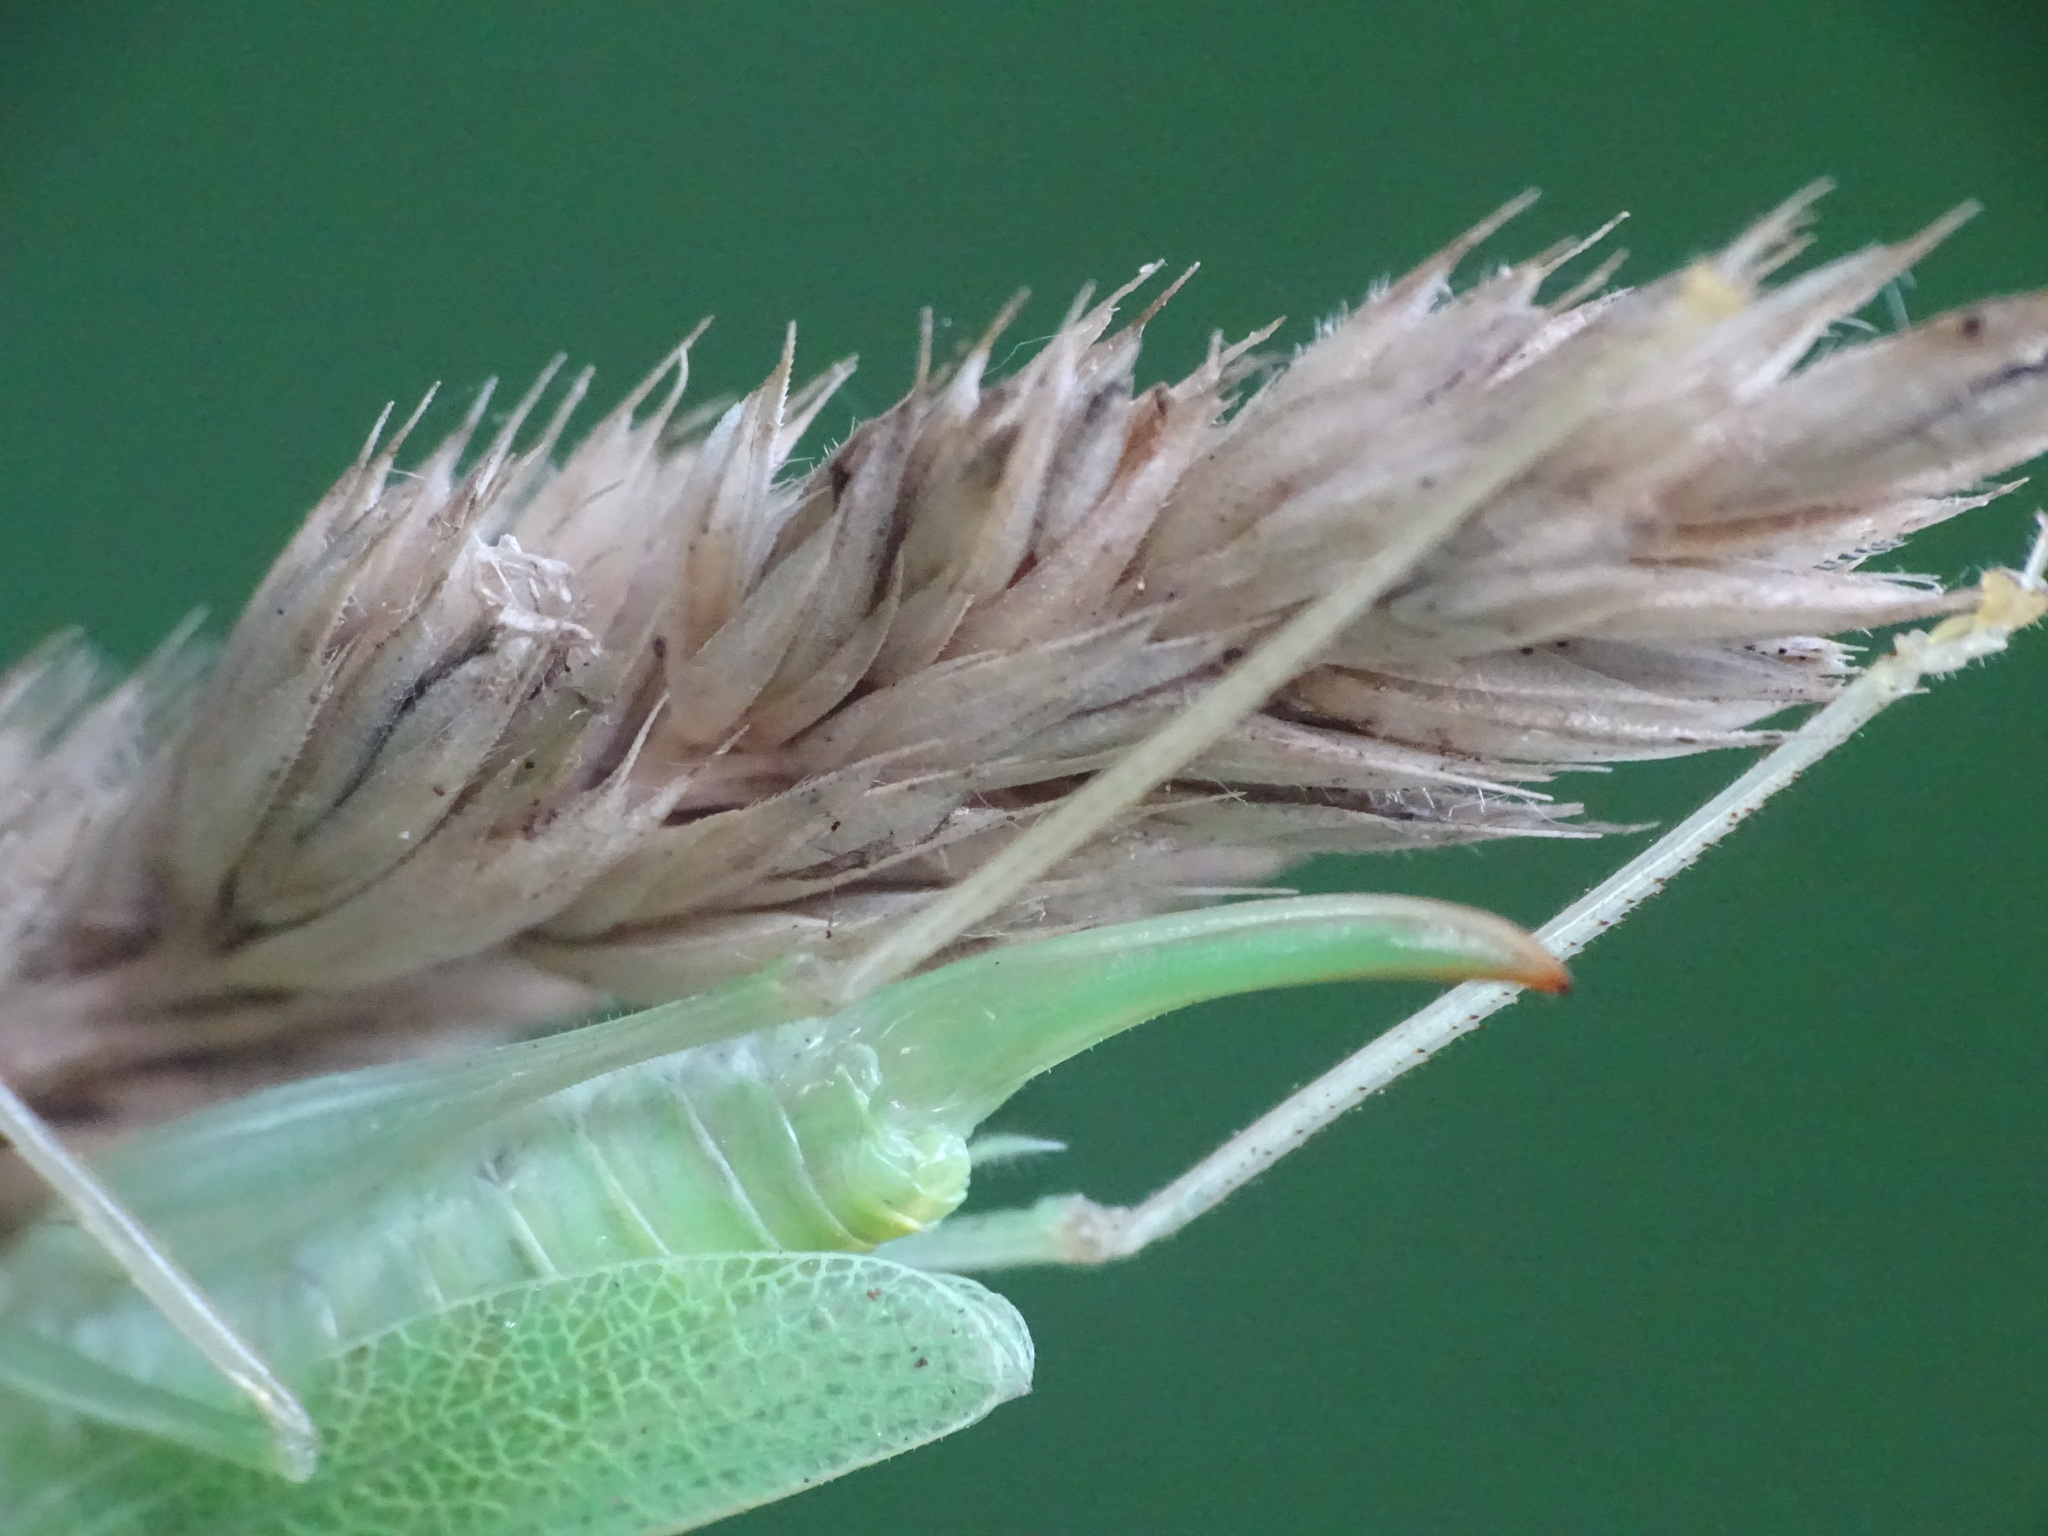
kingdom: Animalia
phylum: Arthropoda
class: Insecta
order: Orthoptera
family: Tettigoniidae
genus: Meconema
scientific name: Meconema thalassinum
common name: Oak bush-cricket
